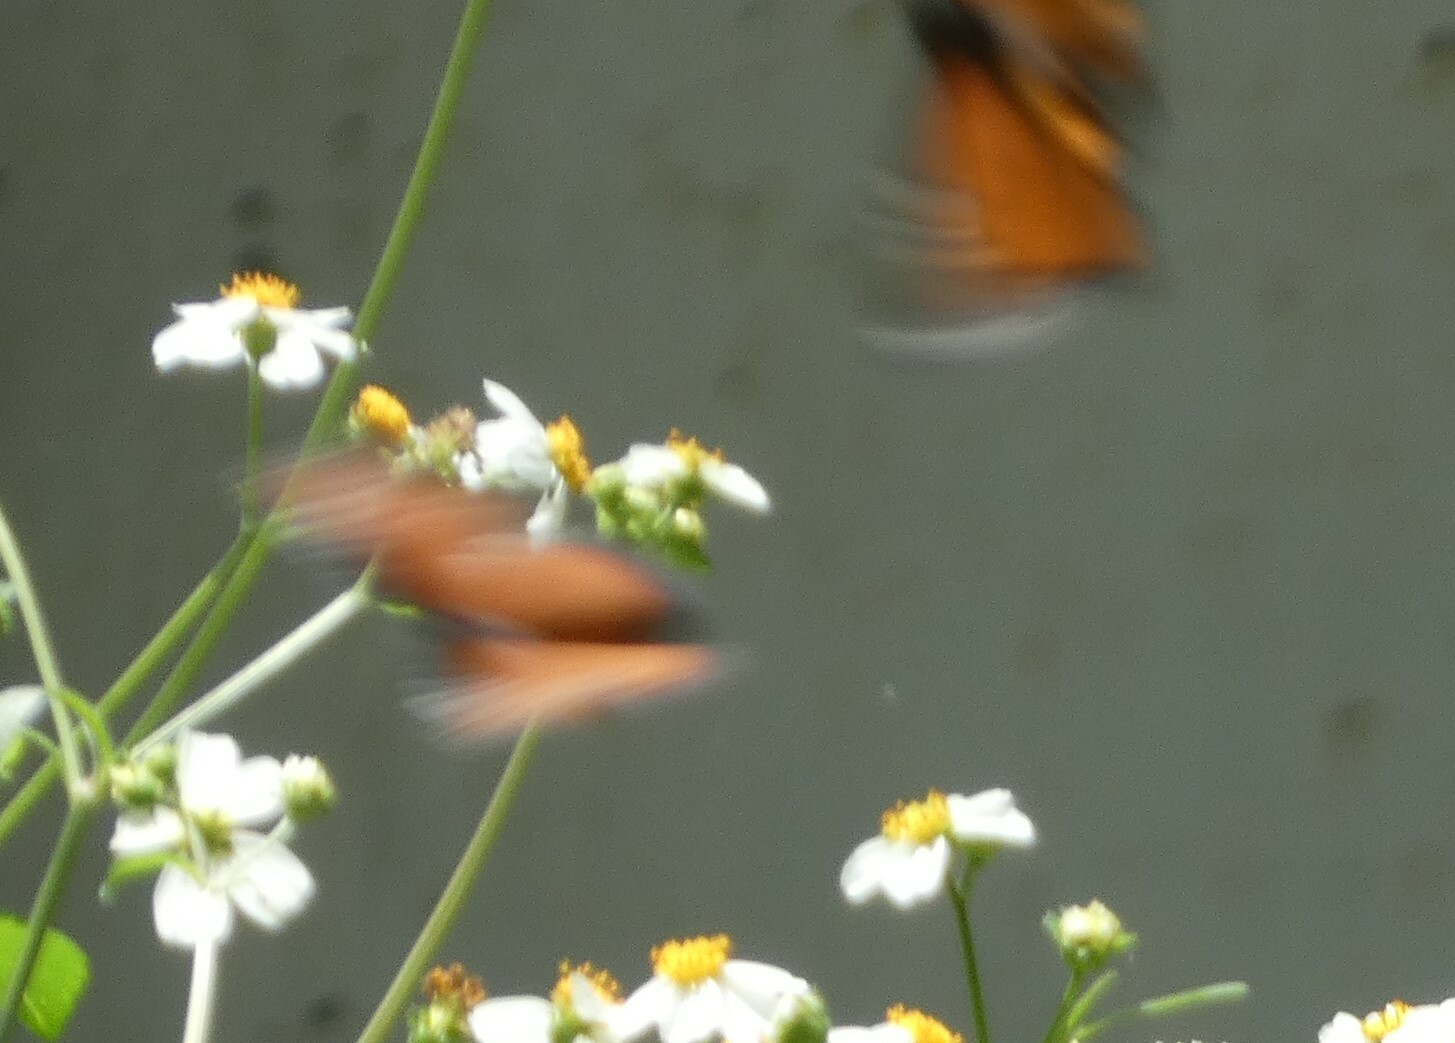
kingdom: Animalia
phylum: Arthropoda
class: Insecta
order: Lepidoptera
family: Nymphalidae
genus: Danaus
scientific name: Danaus gilippus
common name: Queen
